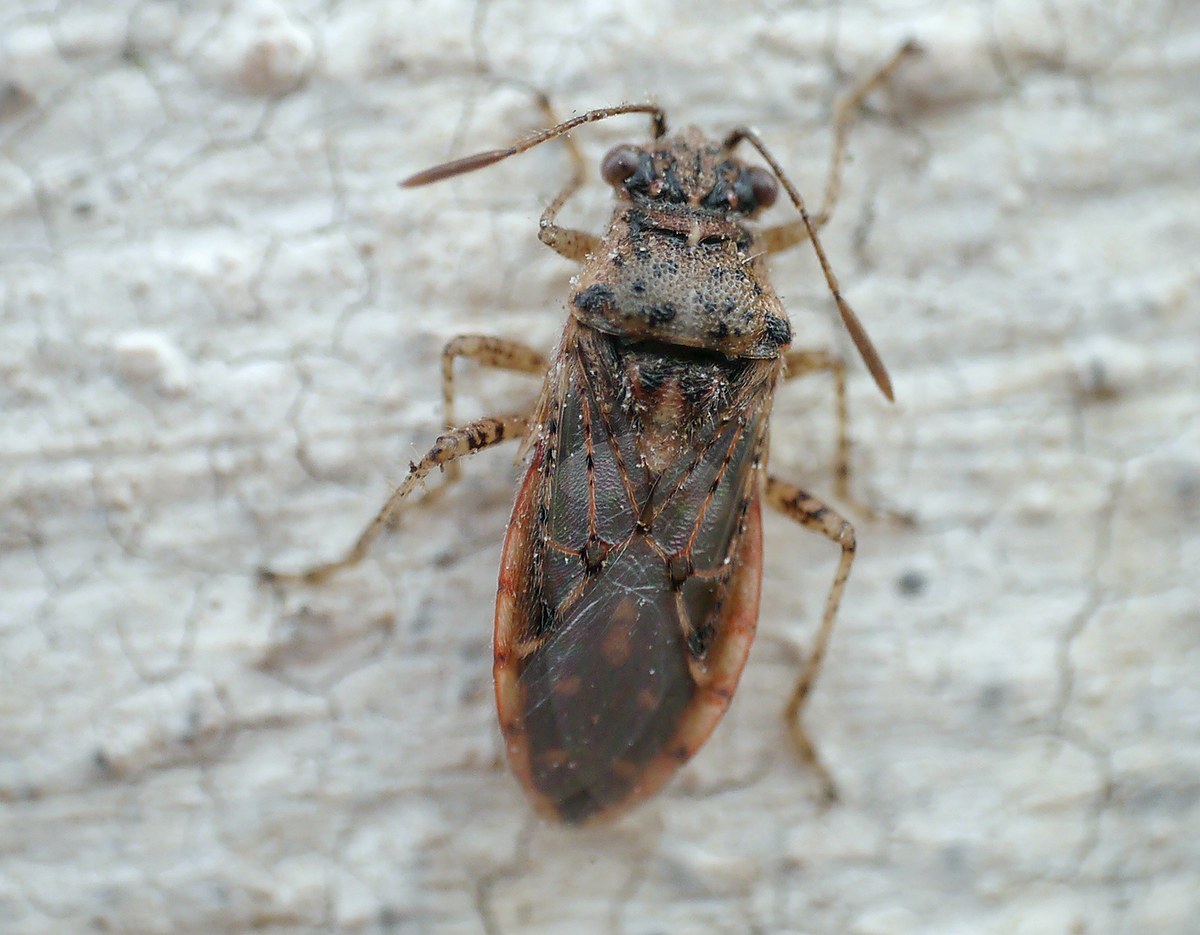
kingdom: Animalia
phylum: Arthropoda
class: Insecta
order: Hemiptera
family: Rhopalidae
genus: Brachycarenus
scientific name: Brachycarenus tigrinus
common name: Scentless plant bug
